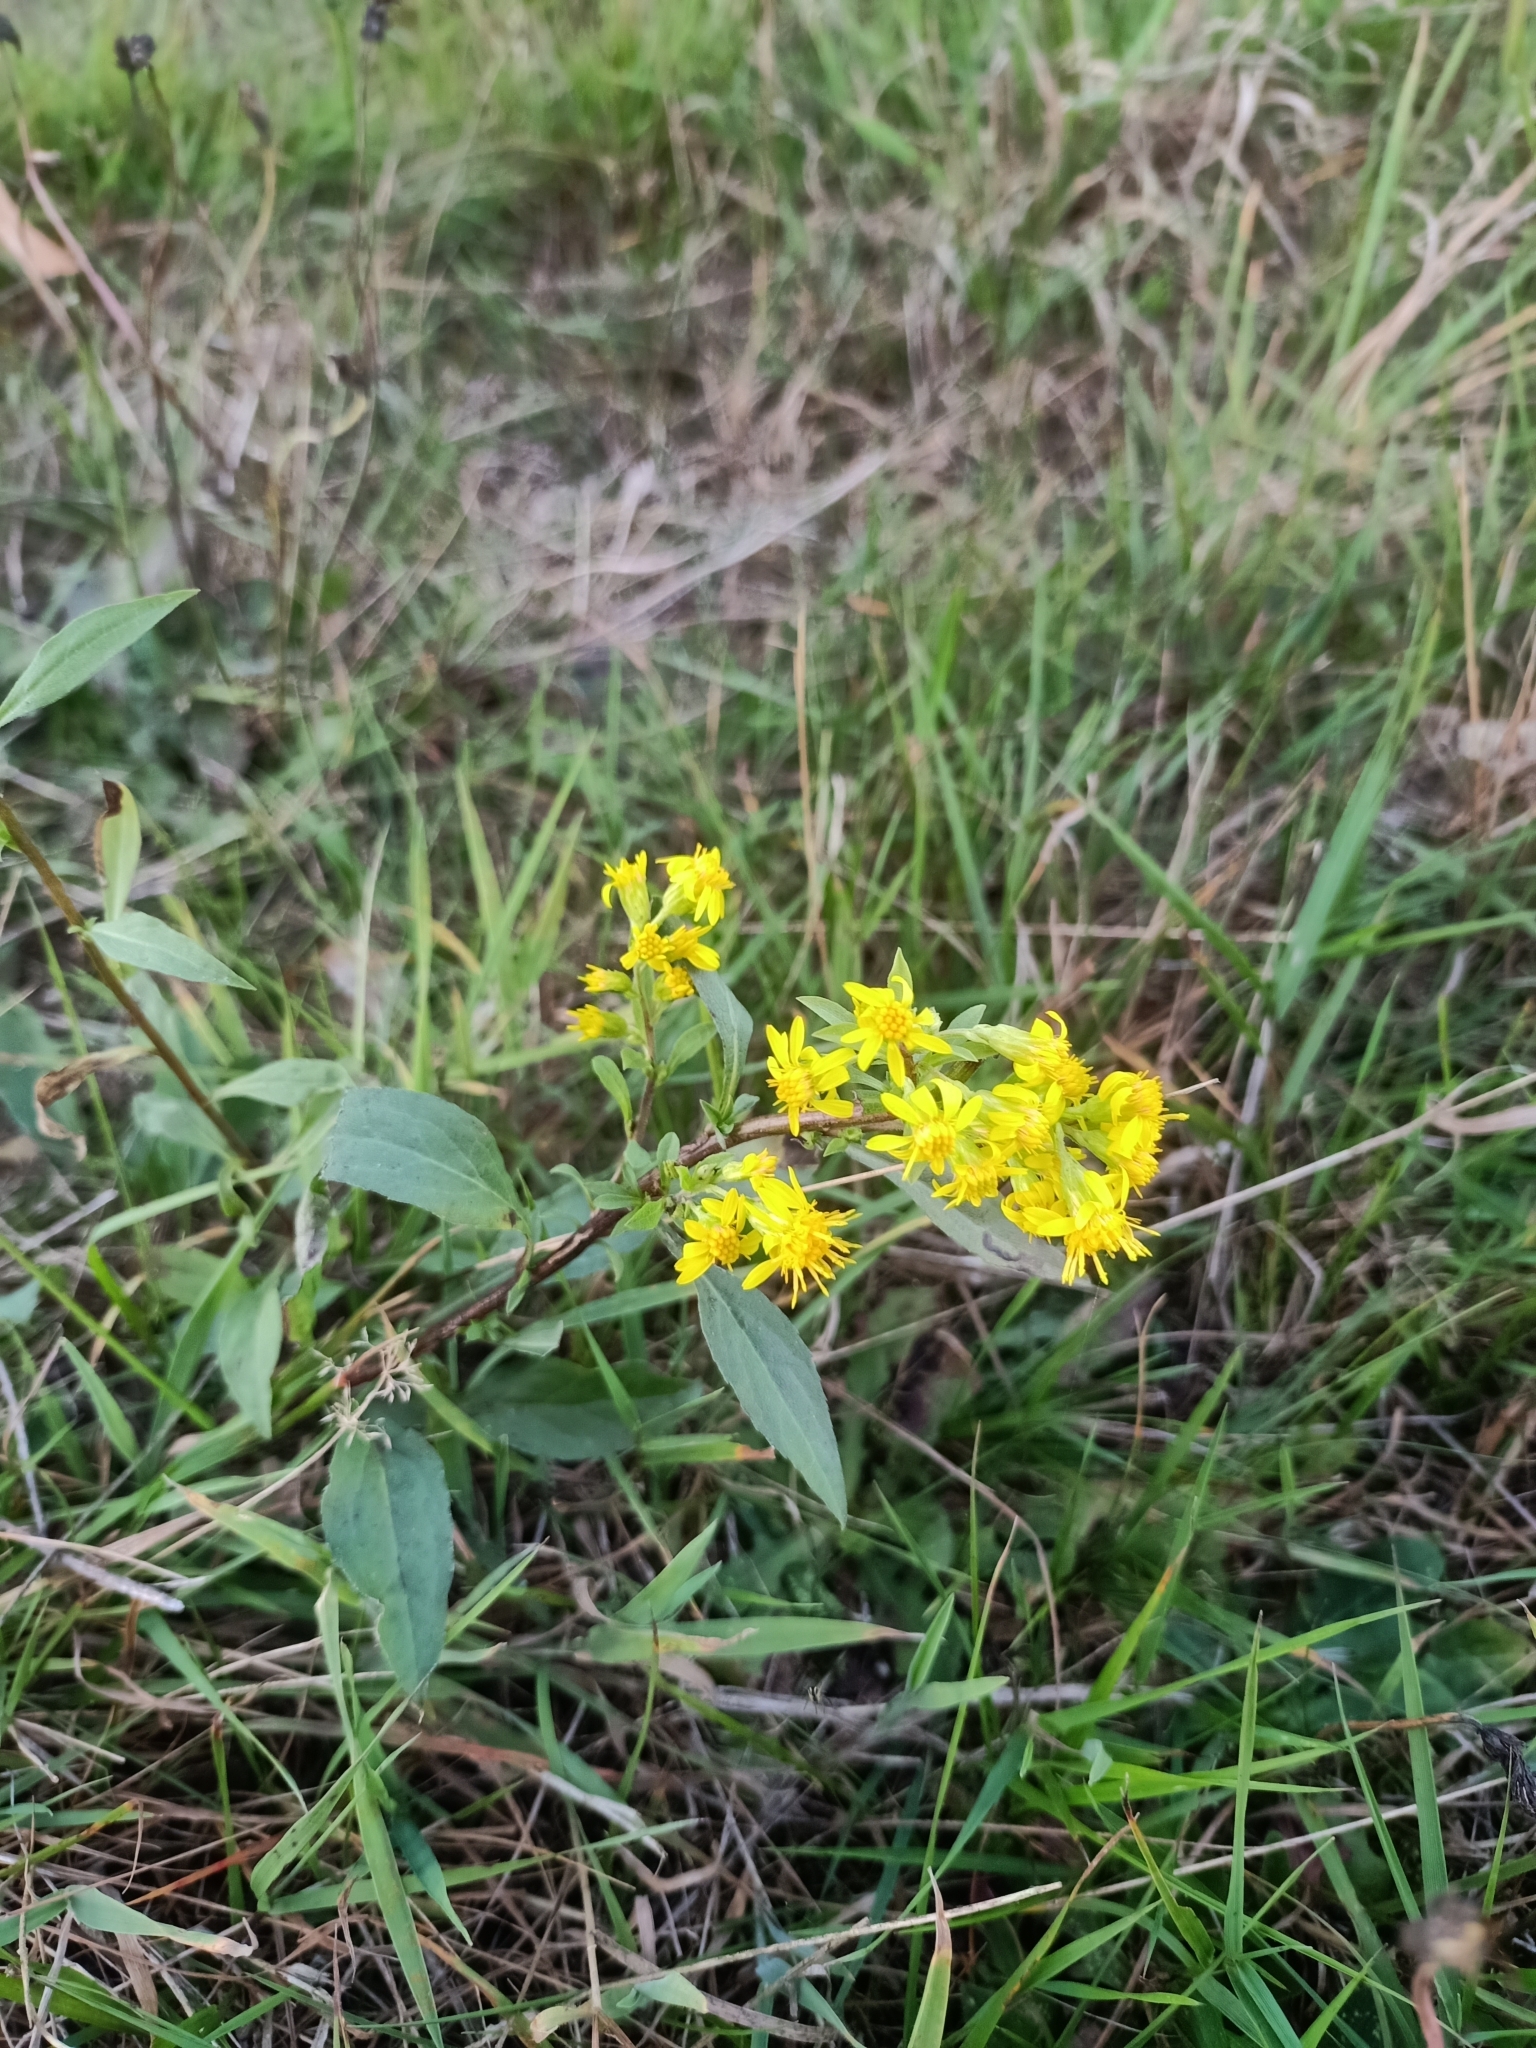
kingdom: Plantae
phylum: Tracheophyta
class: Magnoliopsida
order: Asterales
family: Asteraceae
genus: Solidago
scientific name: Solidago virgaurea
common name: Goldenrod
